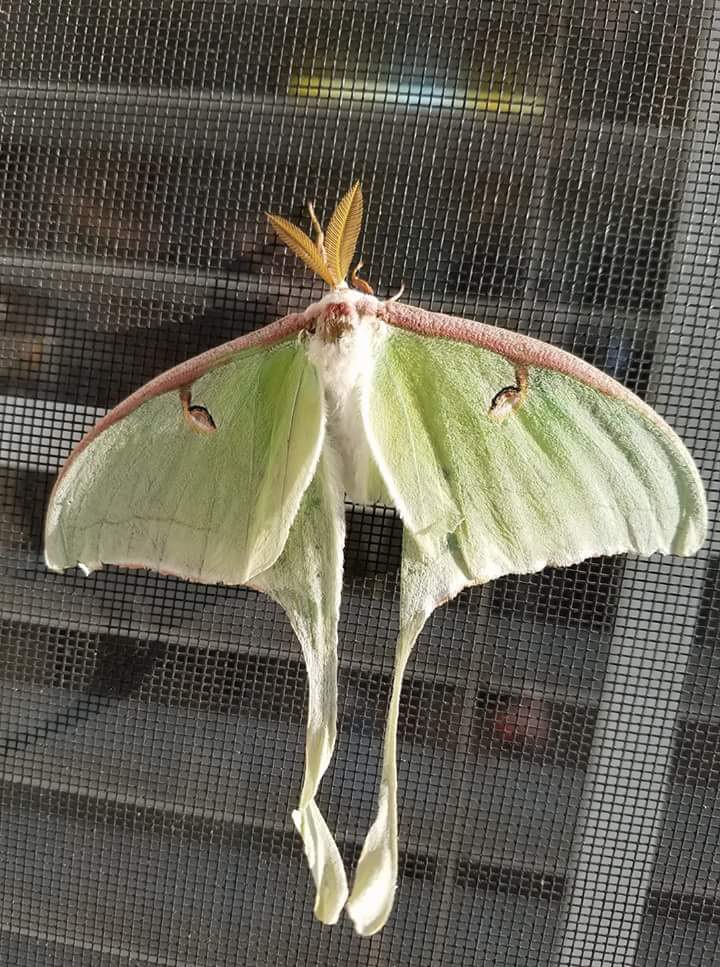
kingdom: Animalia
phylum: Arthropoda
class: Insecta
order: Lepidoptera
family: Saturniidae
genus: Actias
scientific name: Actias luna
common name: Luna moth
